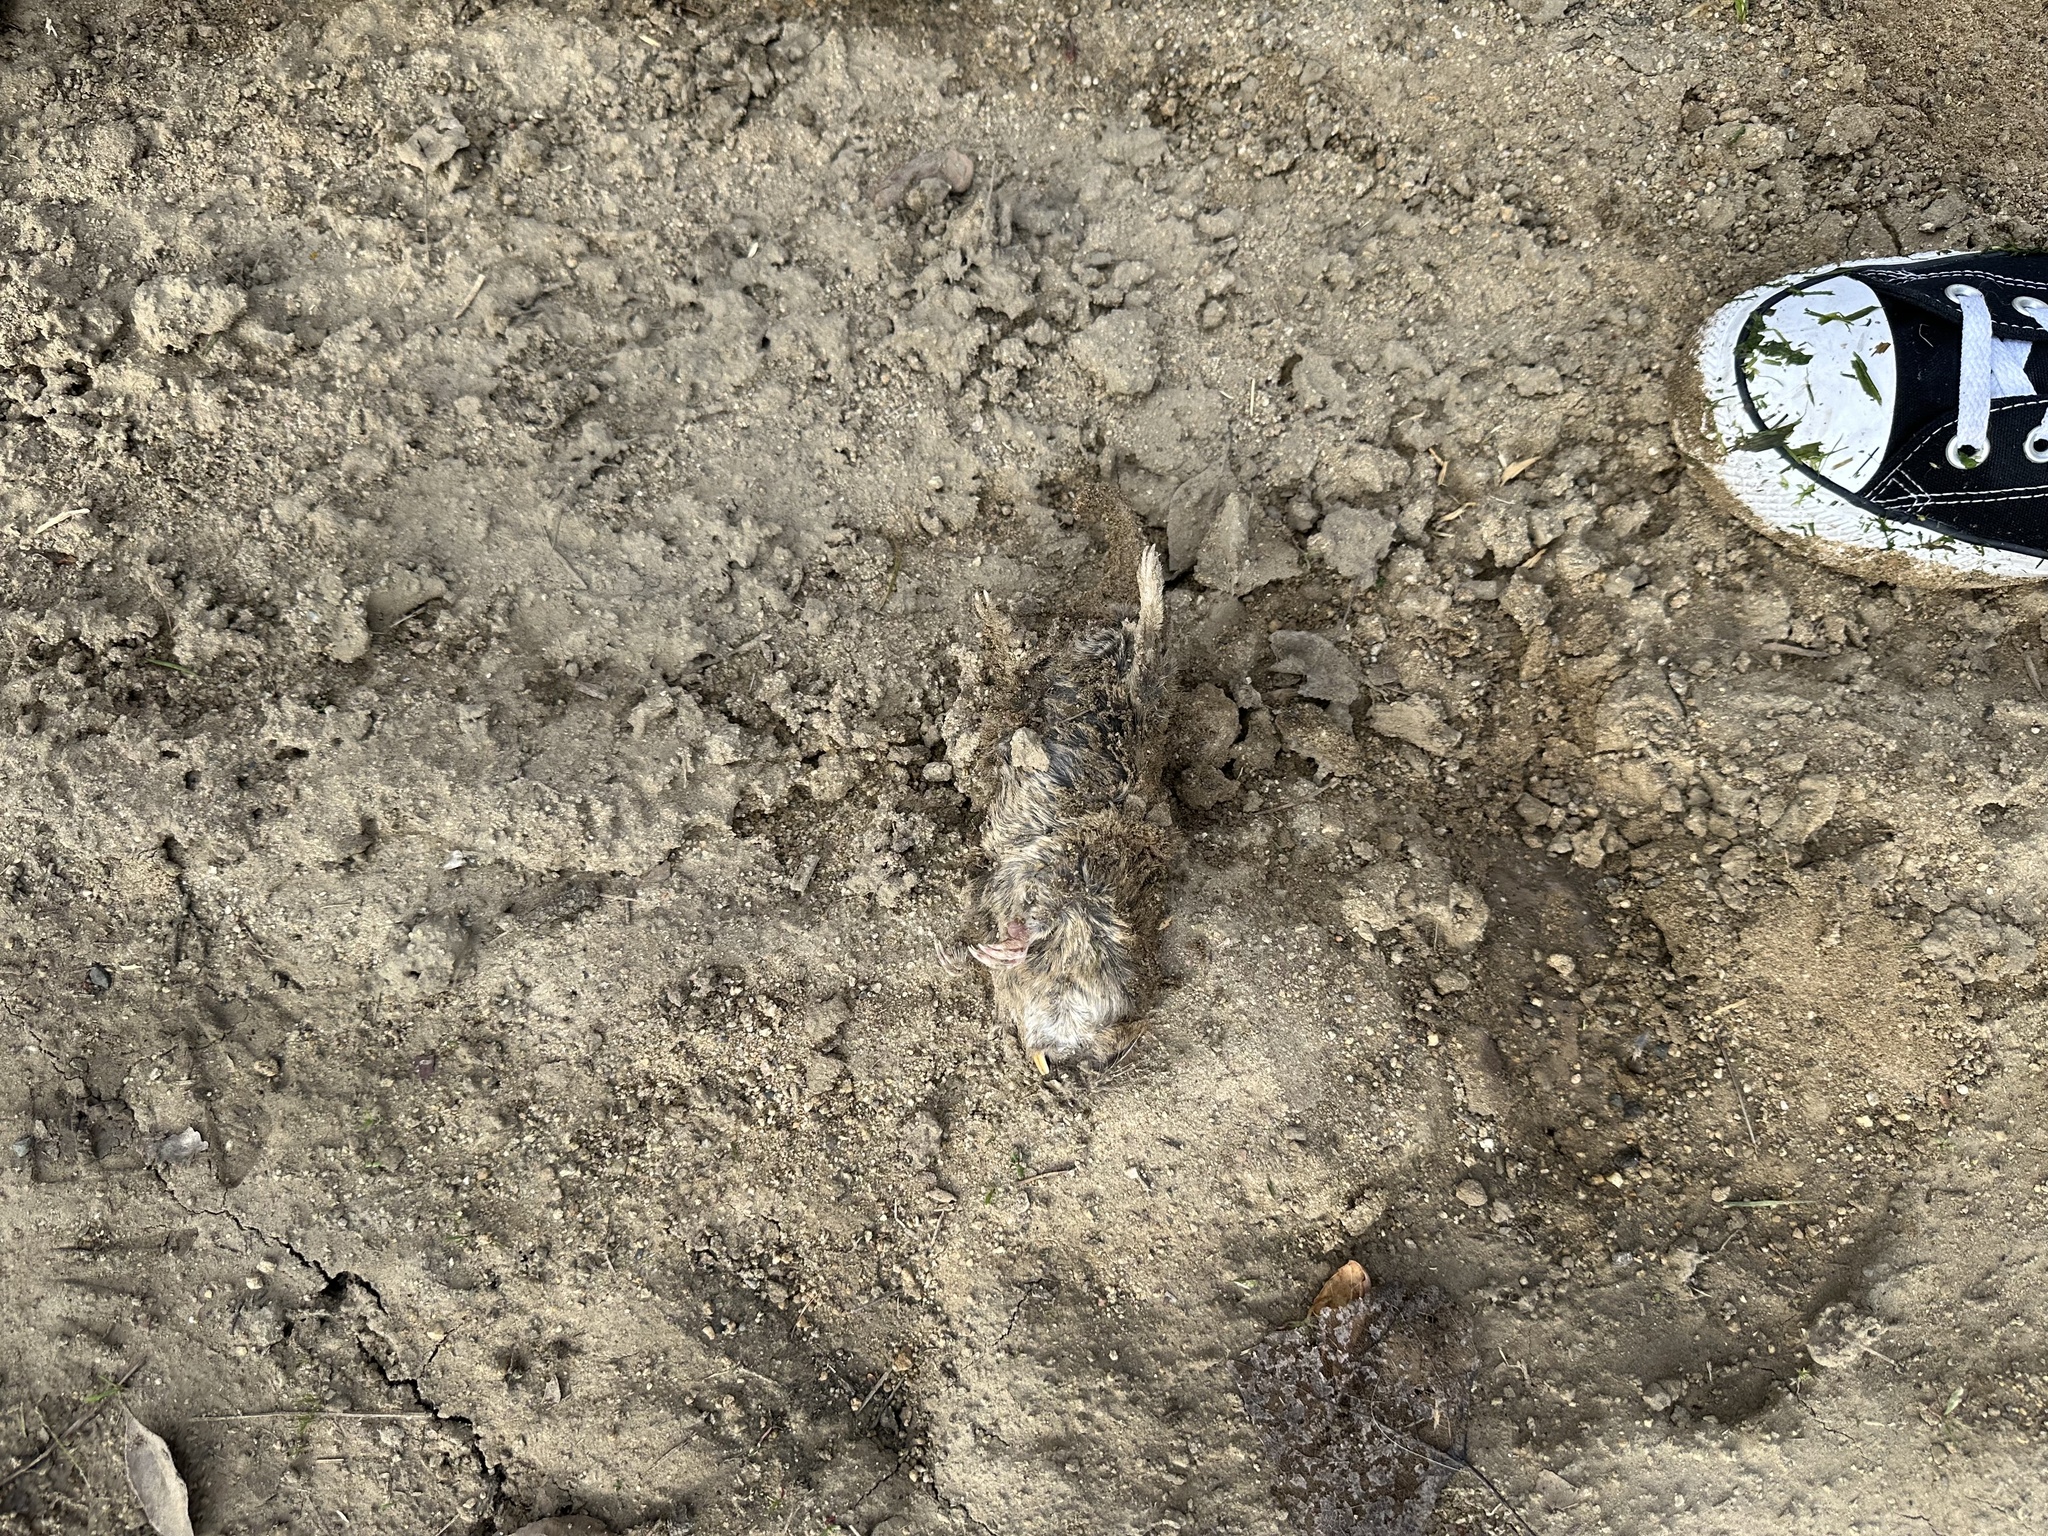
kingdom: Animalia
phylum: Chordata
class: Mammalia
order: Rodentia
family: Geomyidae
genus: Thomomys
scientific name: Thomomys bottae
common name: Botta's pocket gopher
